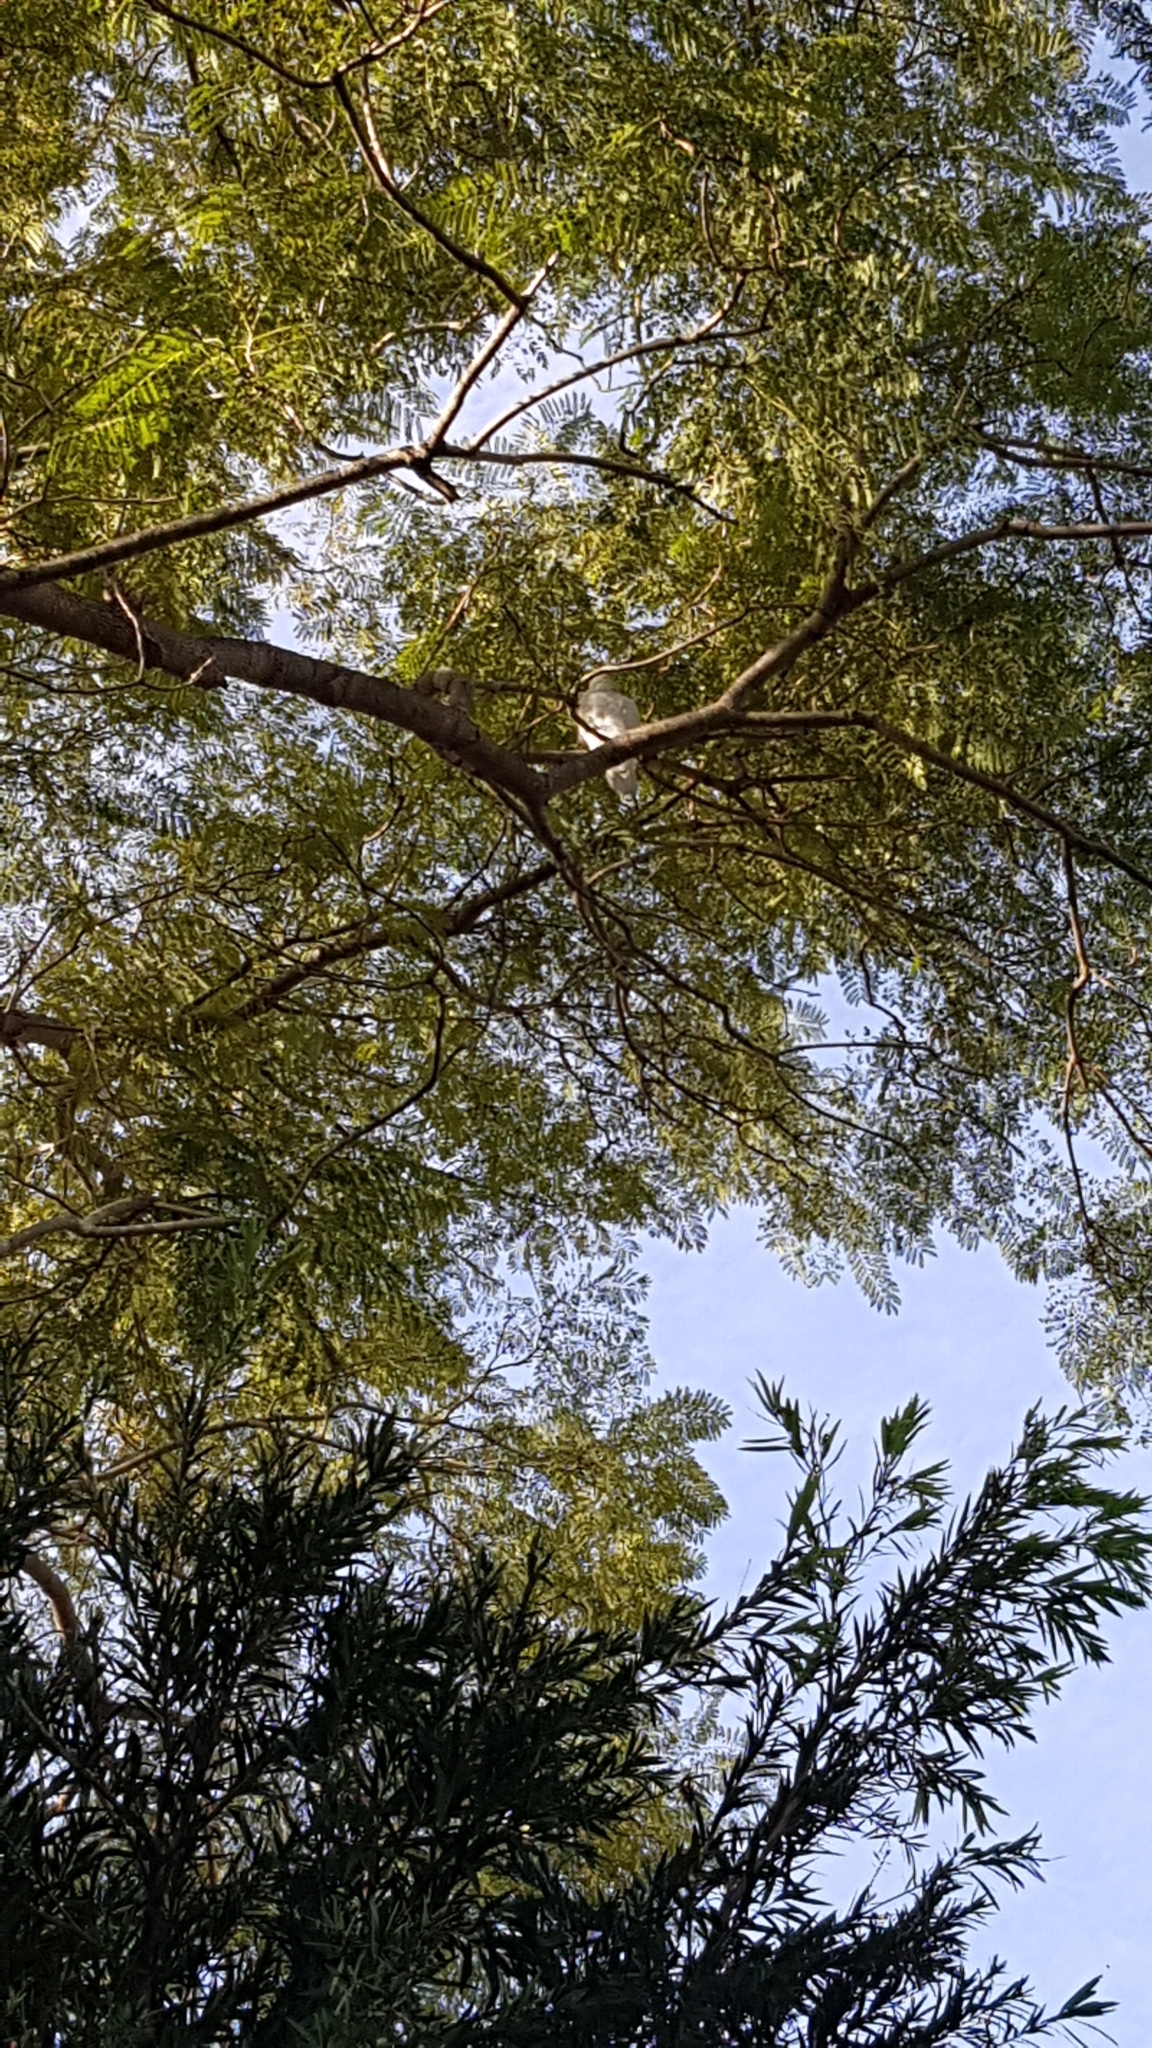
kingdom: Animalia
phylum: Chordata
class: Aves
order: Psittaciformes
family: Psittacidae
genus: Cacatua
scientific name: Cacatua galerita
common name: Sulphur-crested cockatoo
